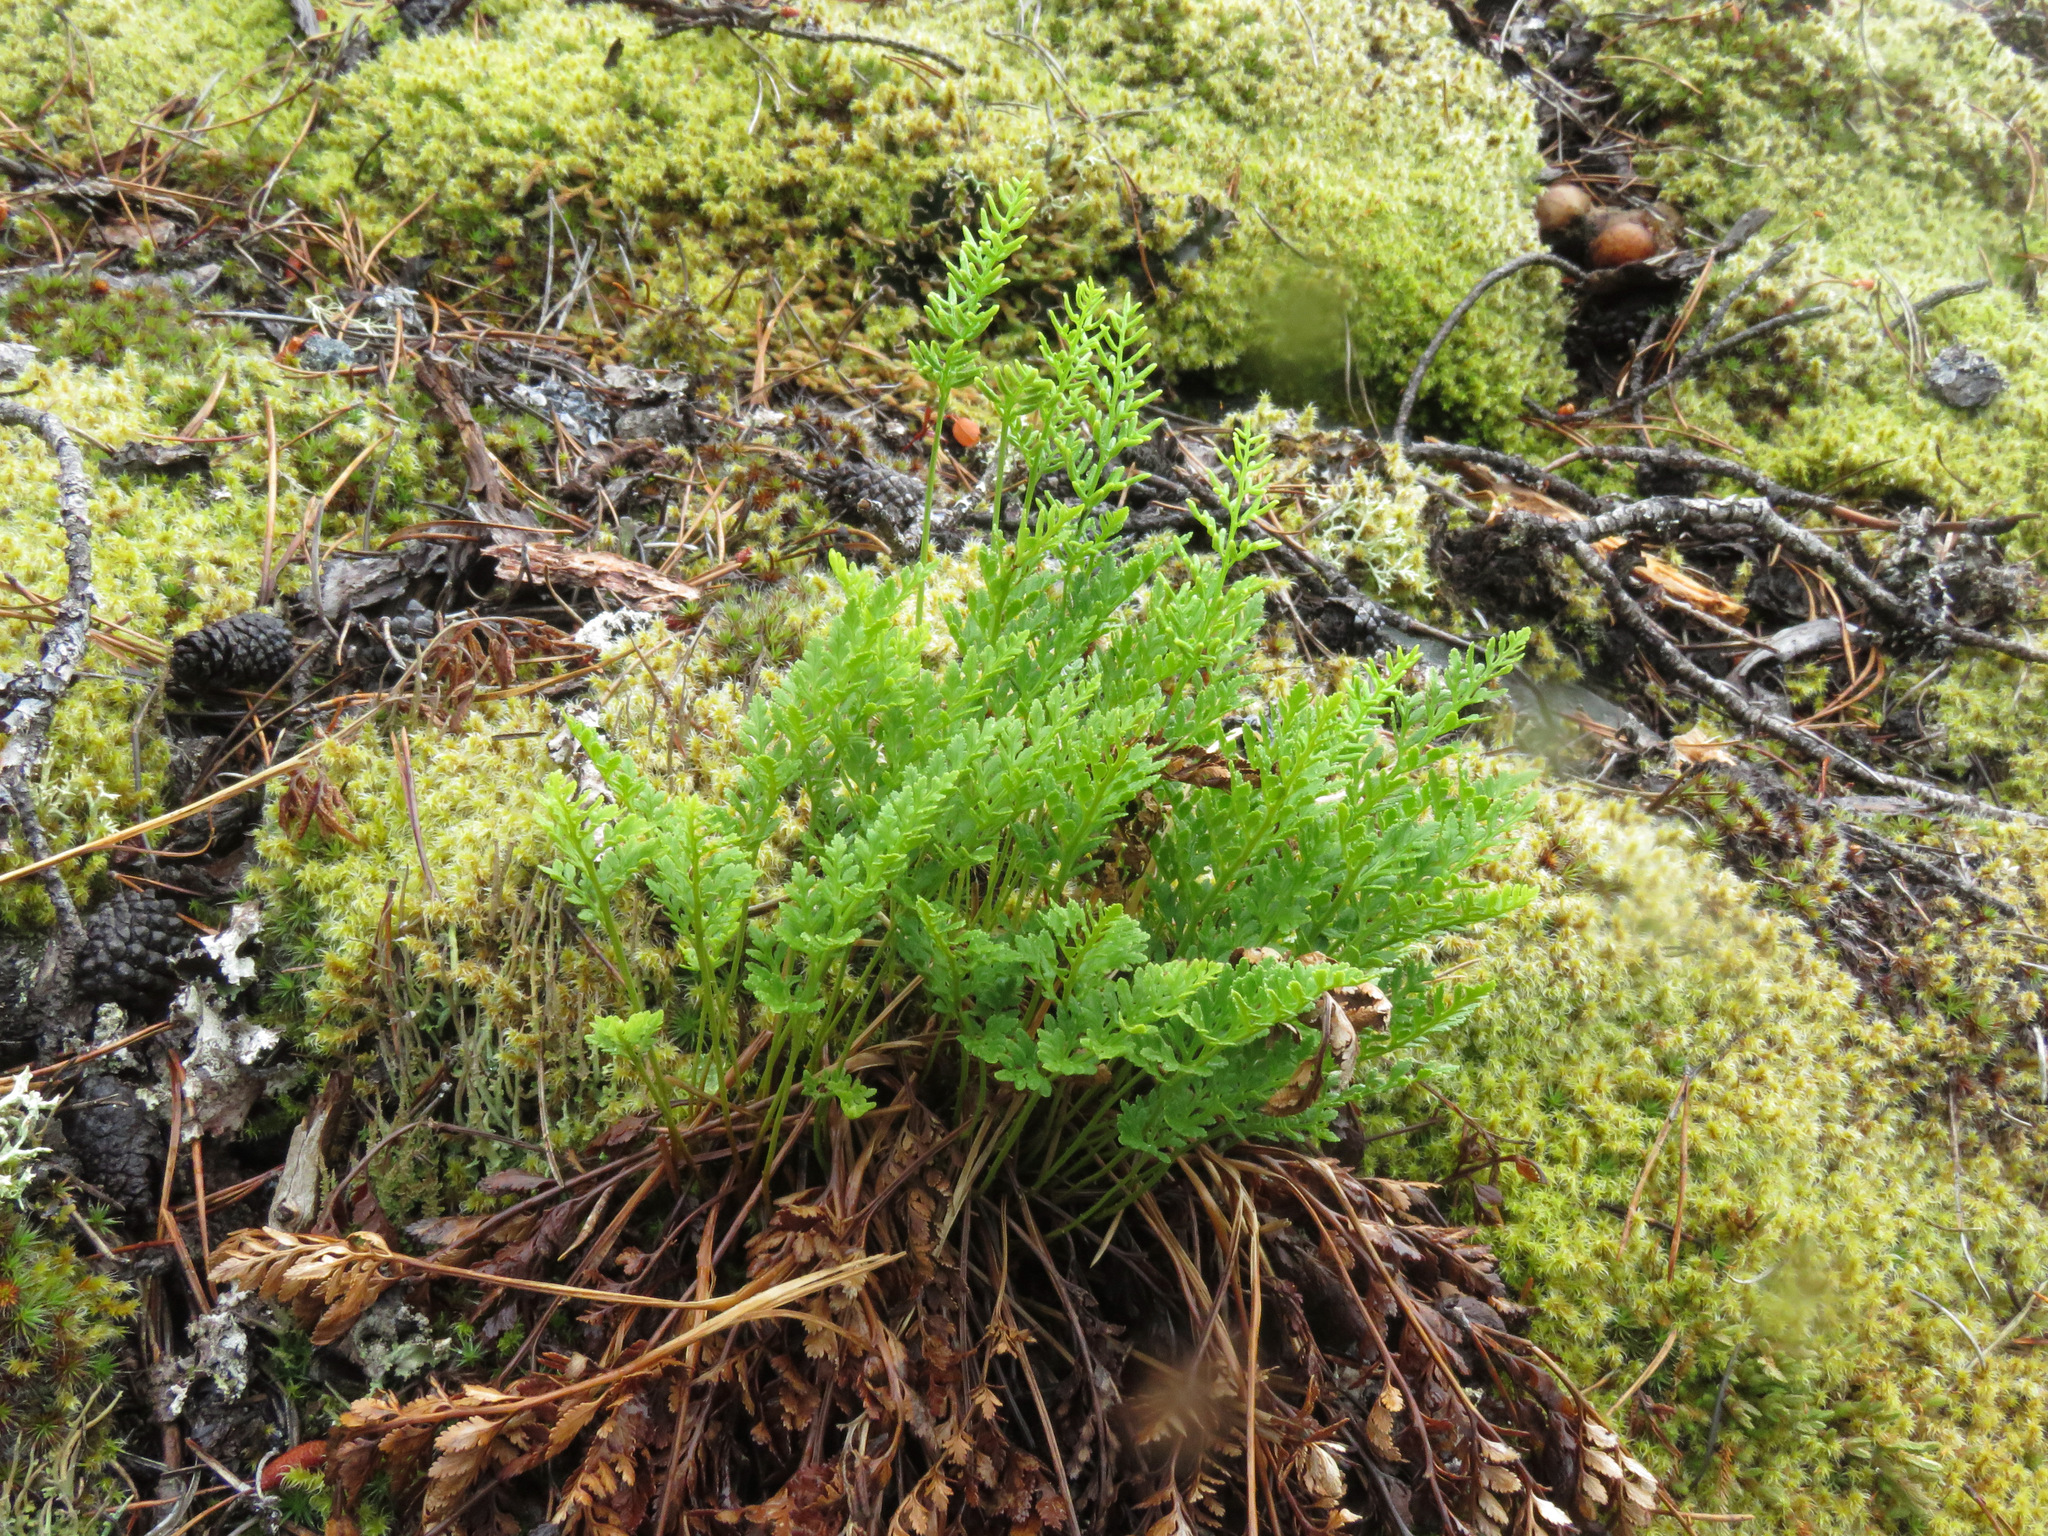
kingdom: Plantae
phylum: Tracheophyta
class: Polypodiopsida
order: Polypodiales
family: Pteridaceae
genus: Cryptogramma
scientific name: Cryptogramma acrostichoides
